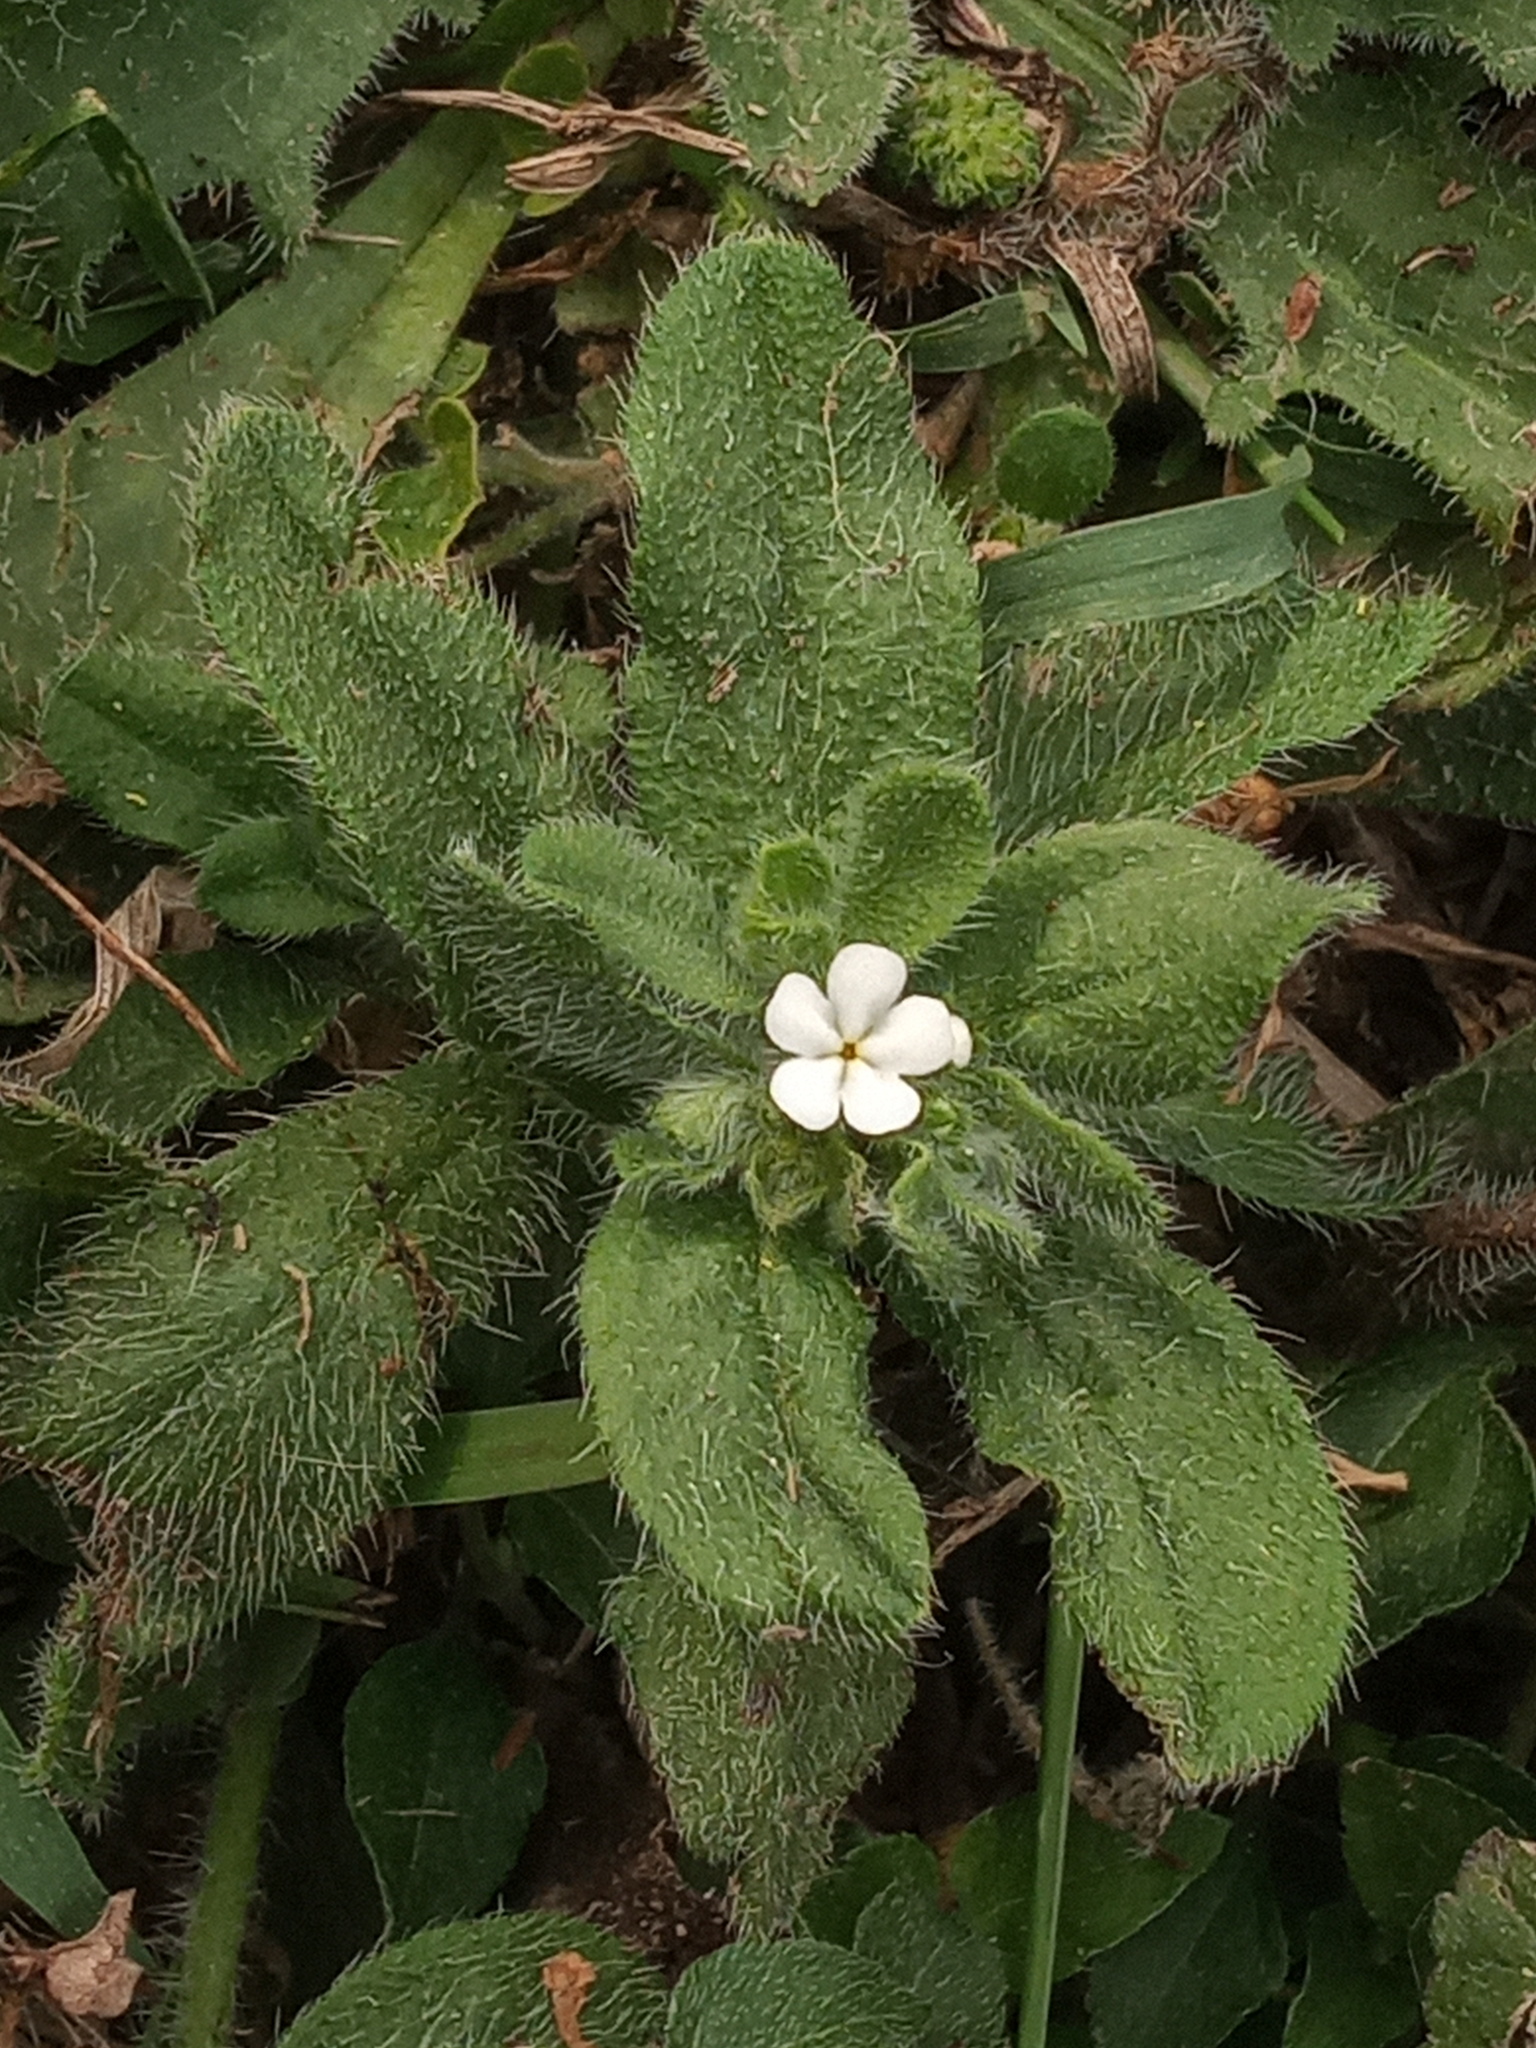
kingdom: Plantae
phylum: Tracheophyta
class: Magnoliopsida
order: Boraginales
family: Boraginaceae
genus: Lithospermum
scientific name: Lithospermum matamorense
